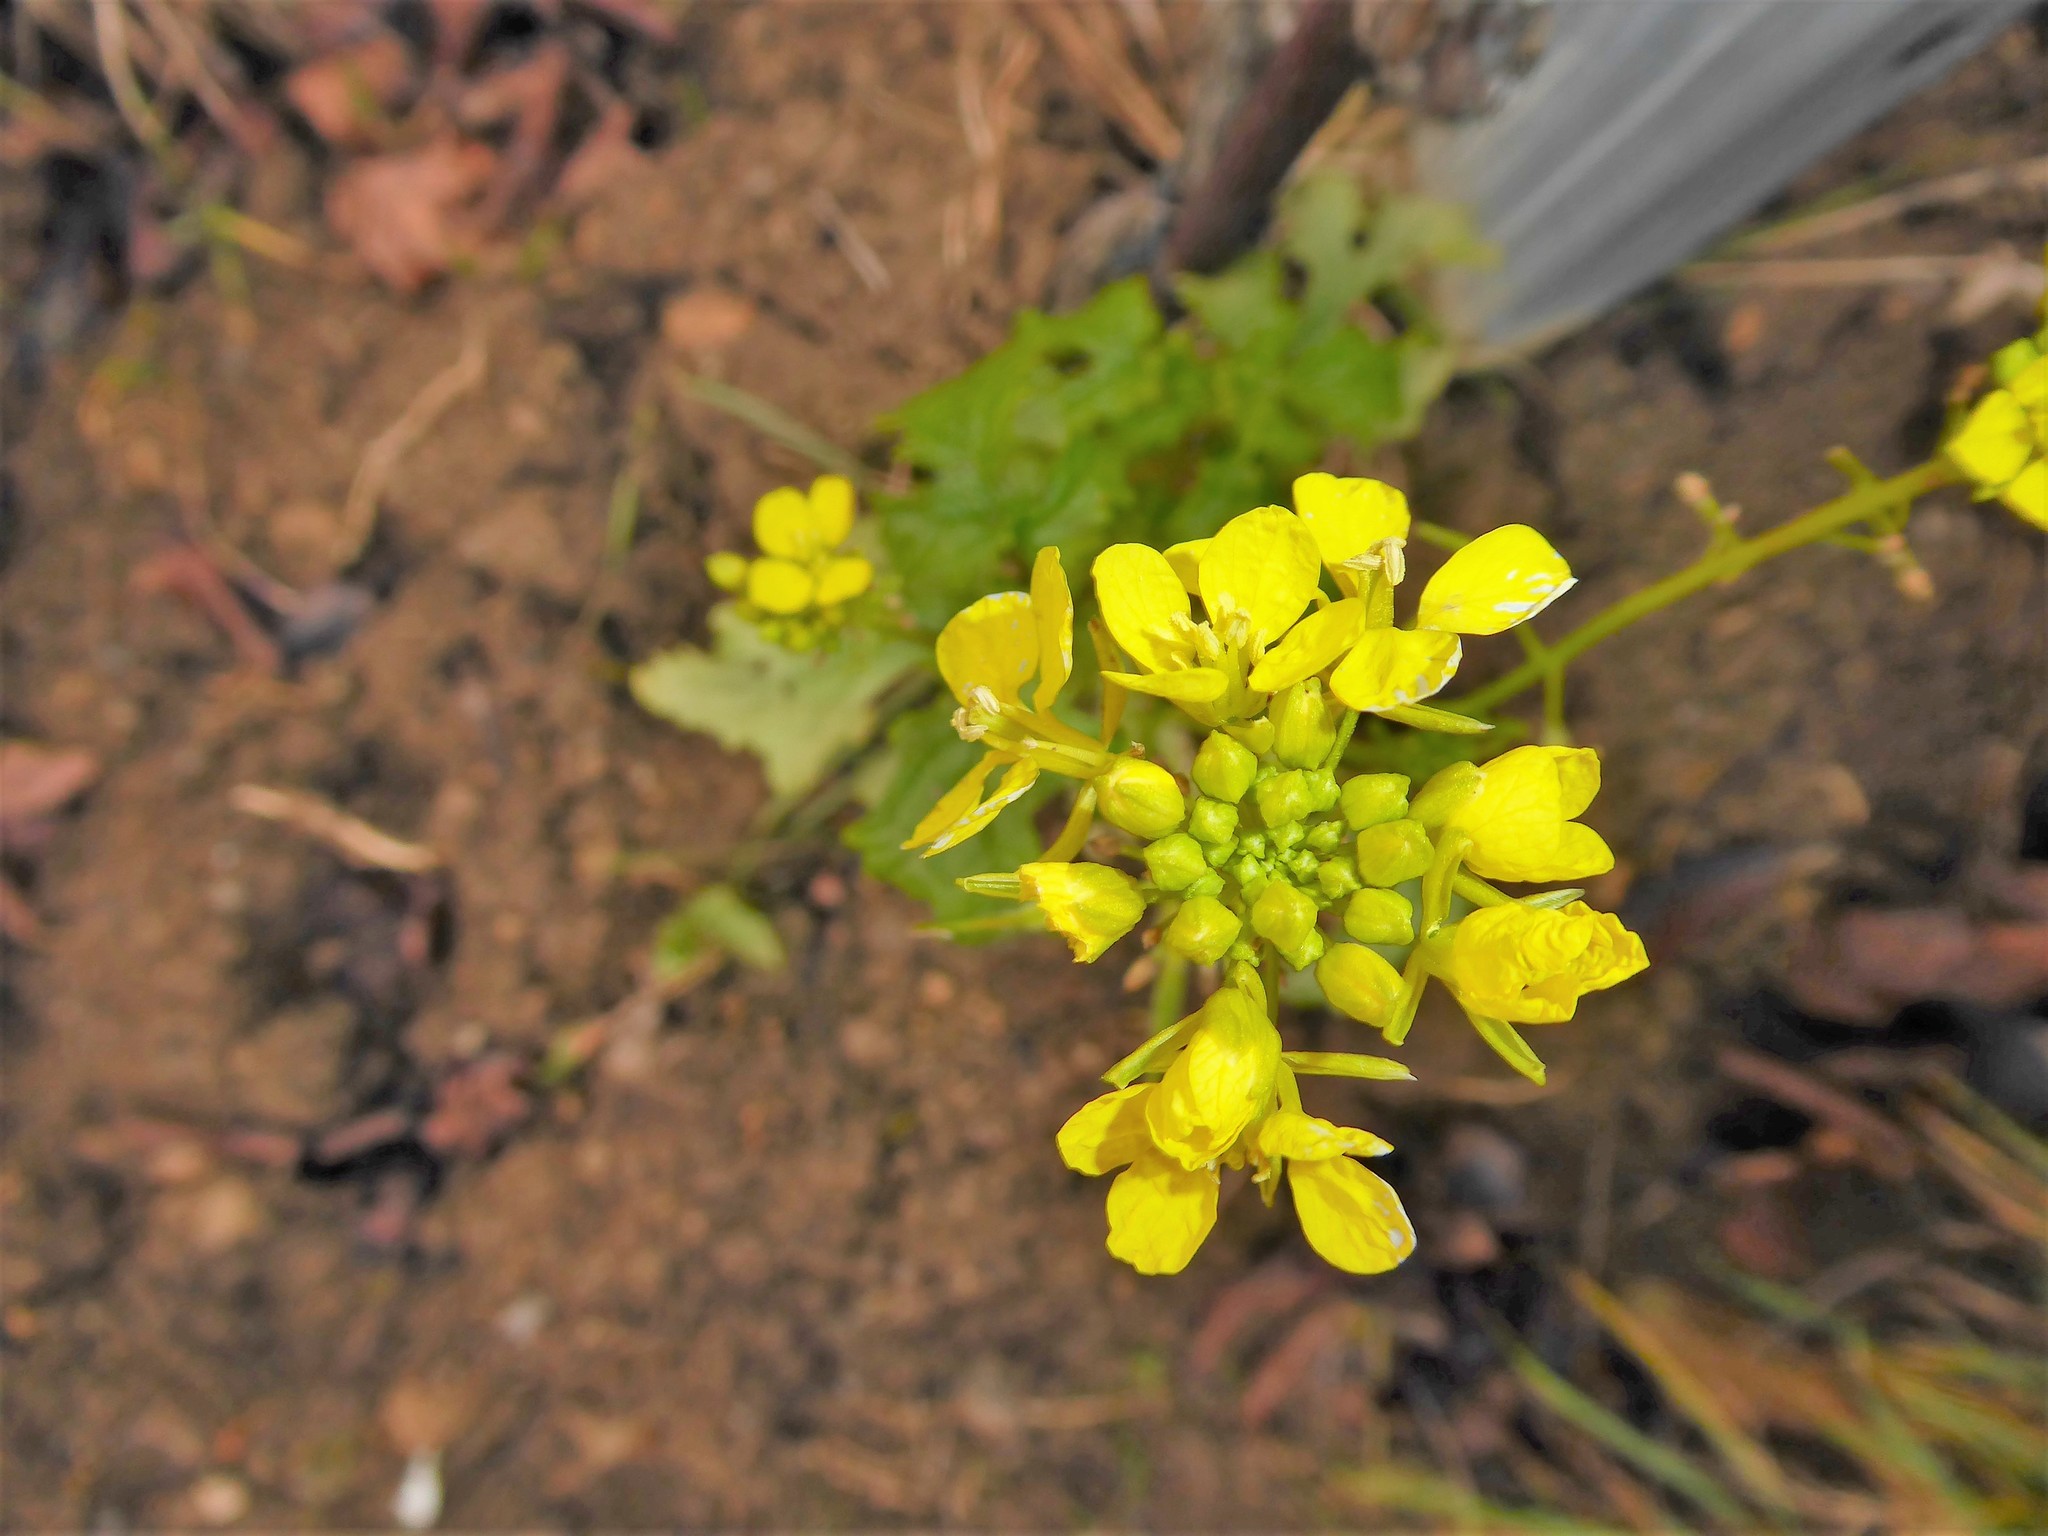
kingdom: Plantae
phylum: Tracheophyta
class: Magnoliopsida
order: Brassicales
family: Brassicaceae
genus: Sinapis
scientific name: Sinapis alba
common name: White mustard
